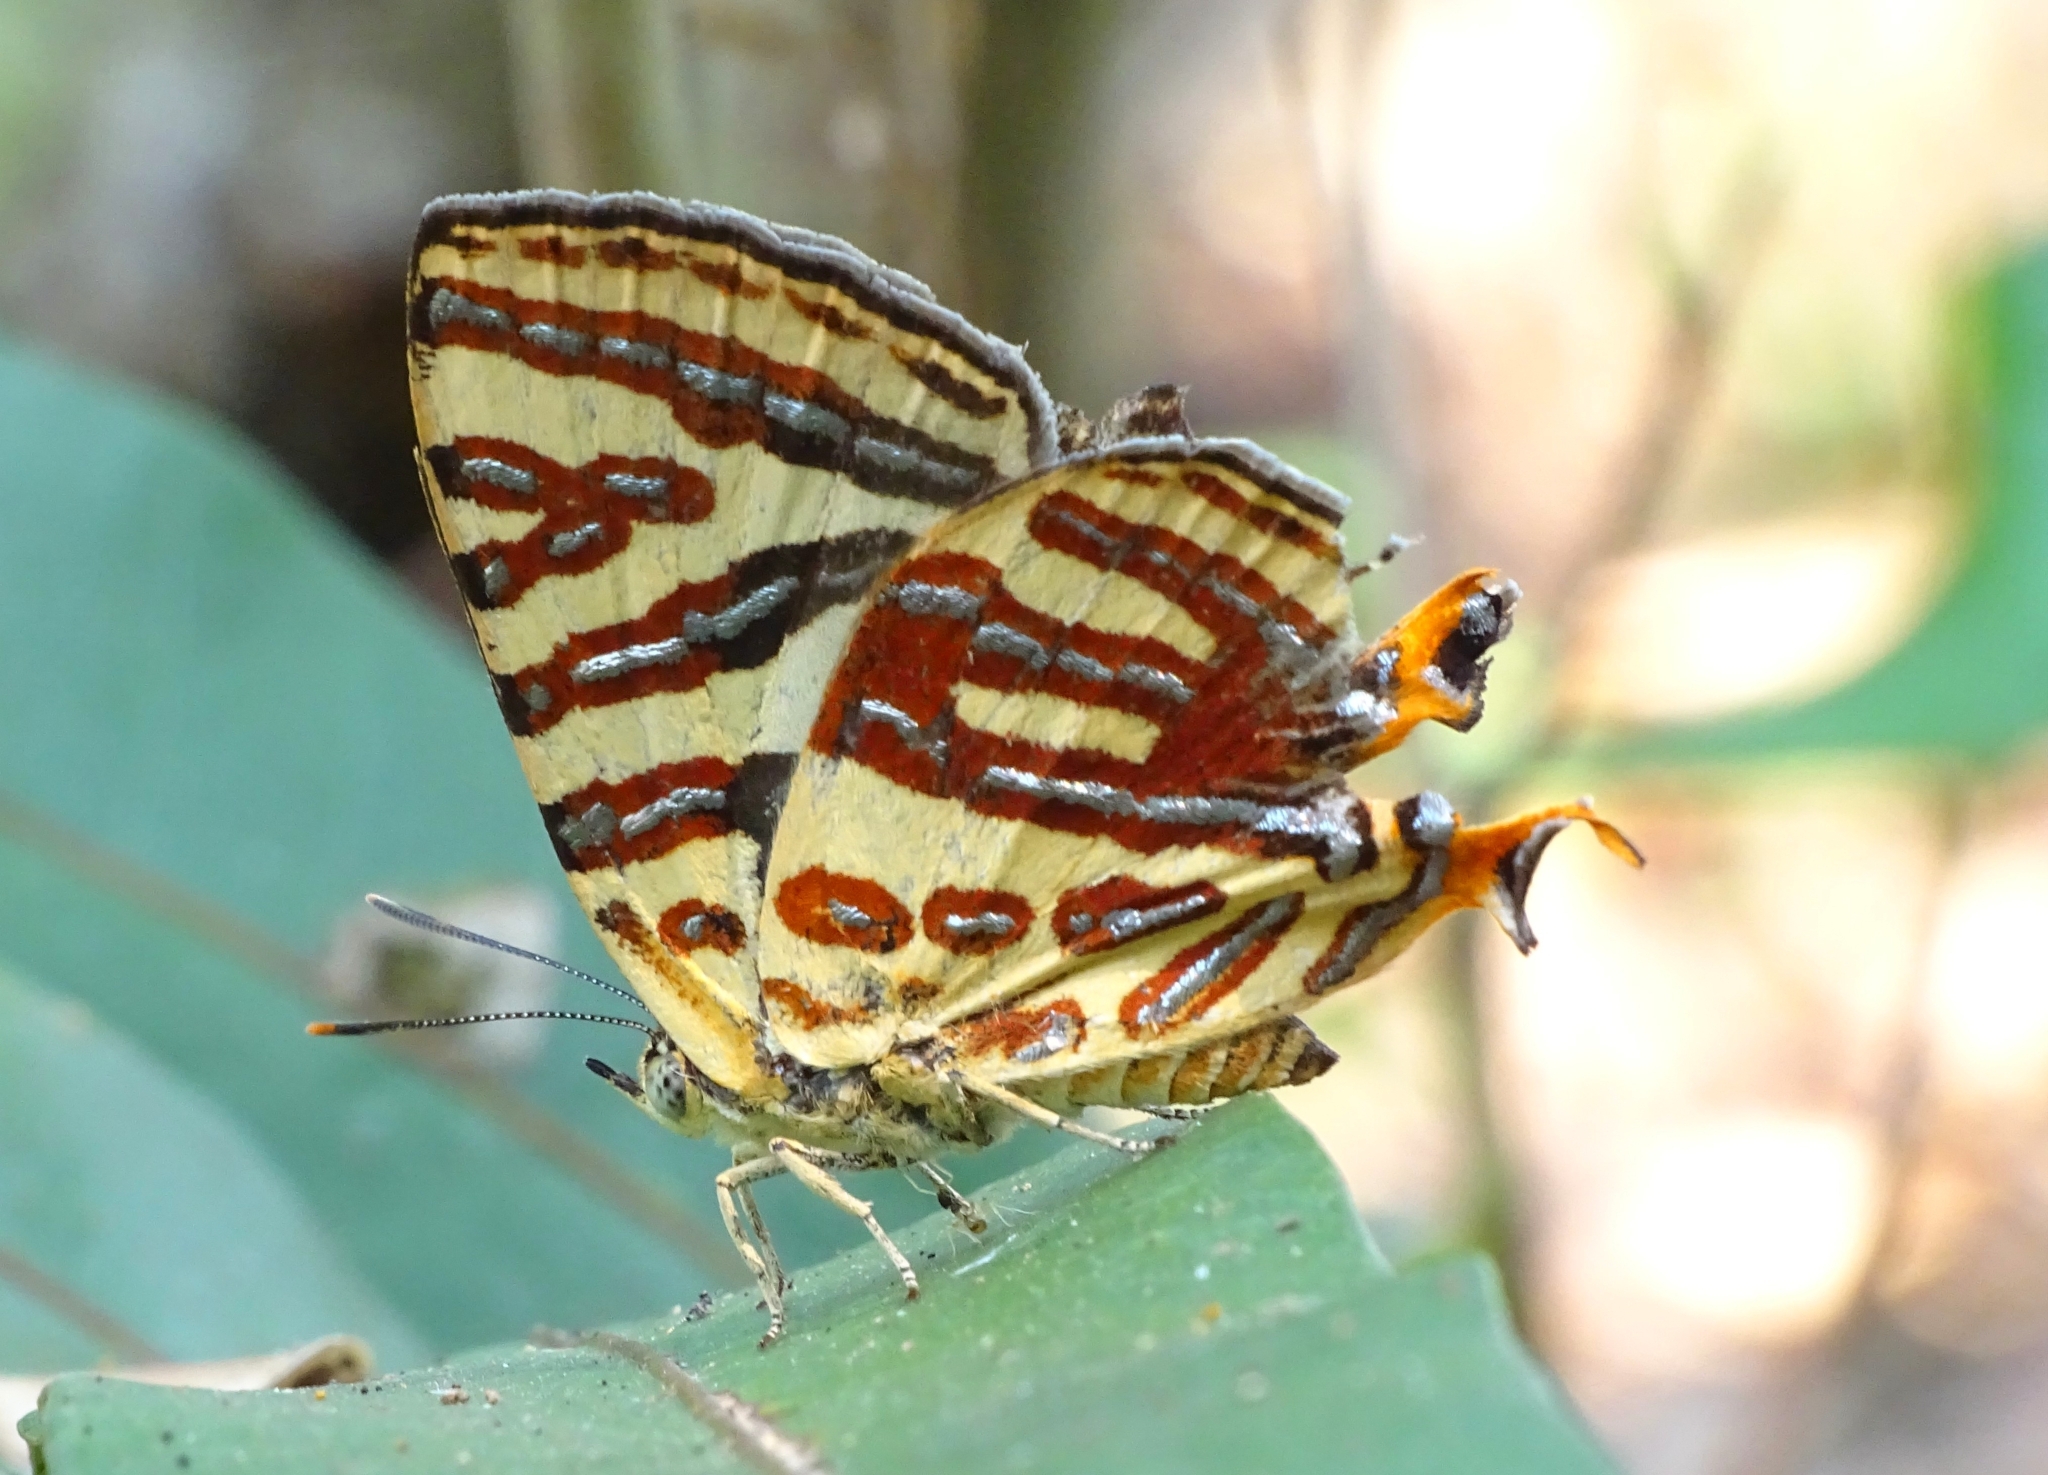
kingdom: Animalia
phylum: Arthropoda
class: Insecta
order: Lepidoptera
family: Lycaenidae
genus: Cigaritis
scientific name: Cigaritis lohita
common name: Long-banded silverline
